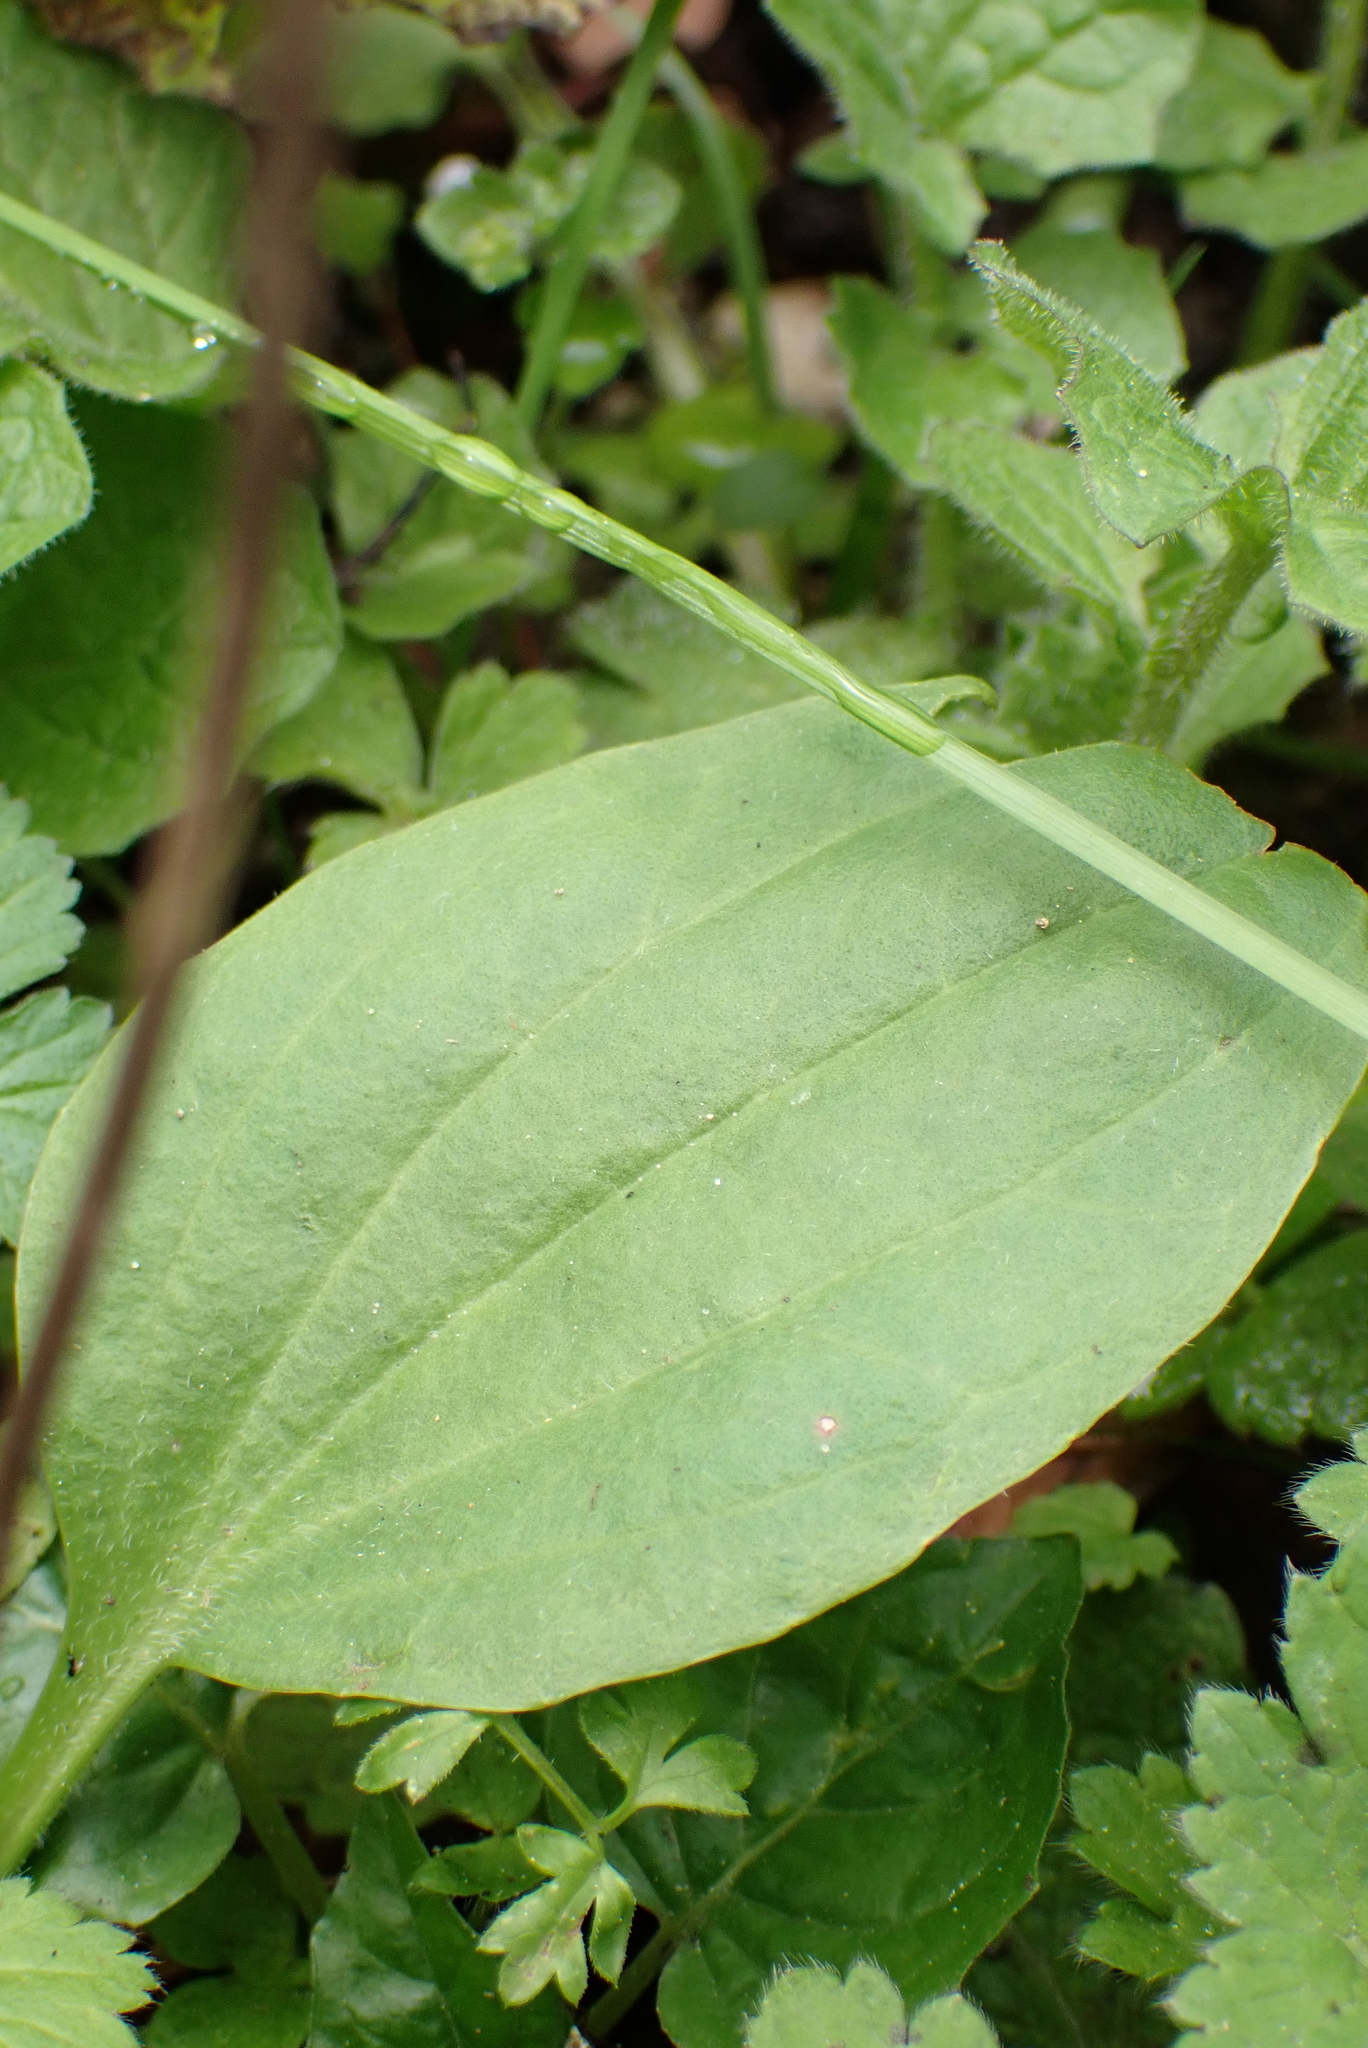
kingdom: Plantae
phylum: Tracheophyta
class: Magnoliopsida
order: Lamiales
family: Plantaginaceae
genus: Plantago
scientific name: Plantago major
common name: Common plantain
